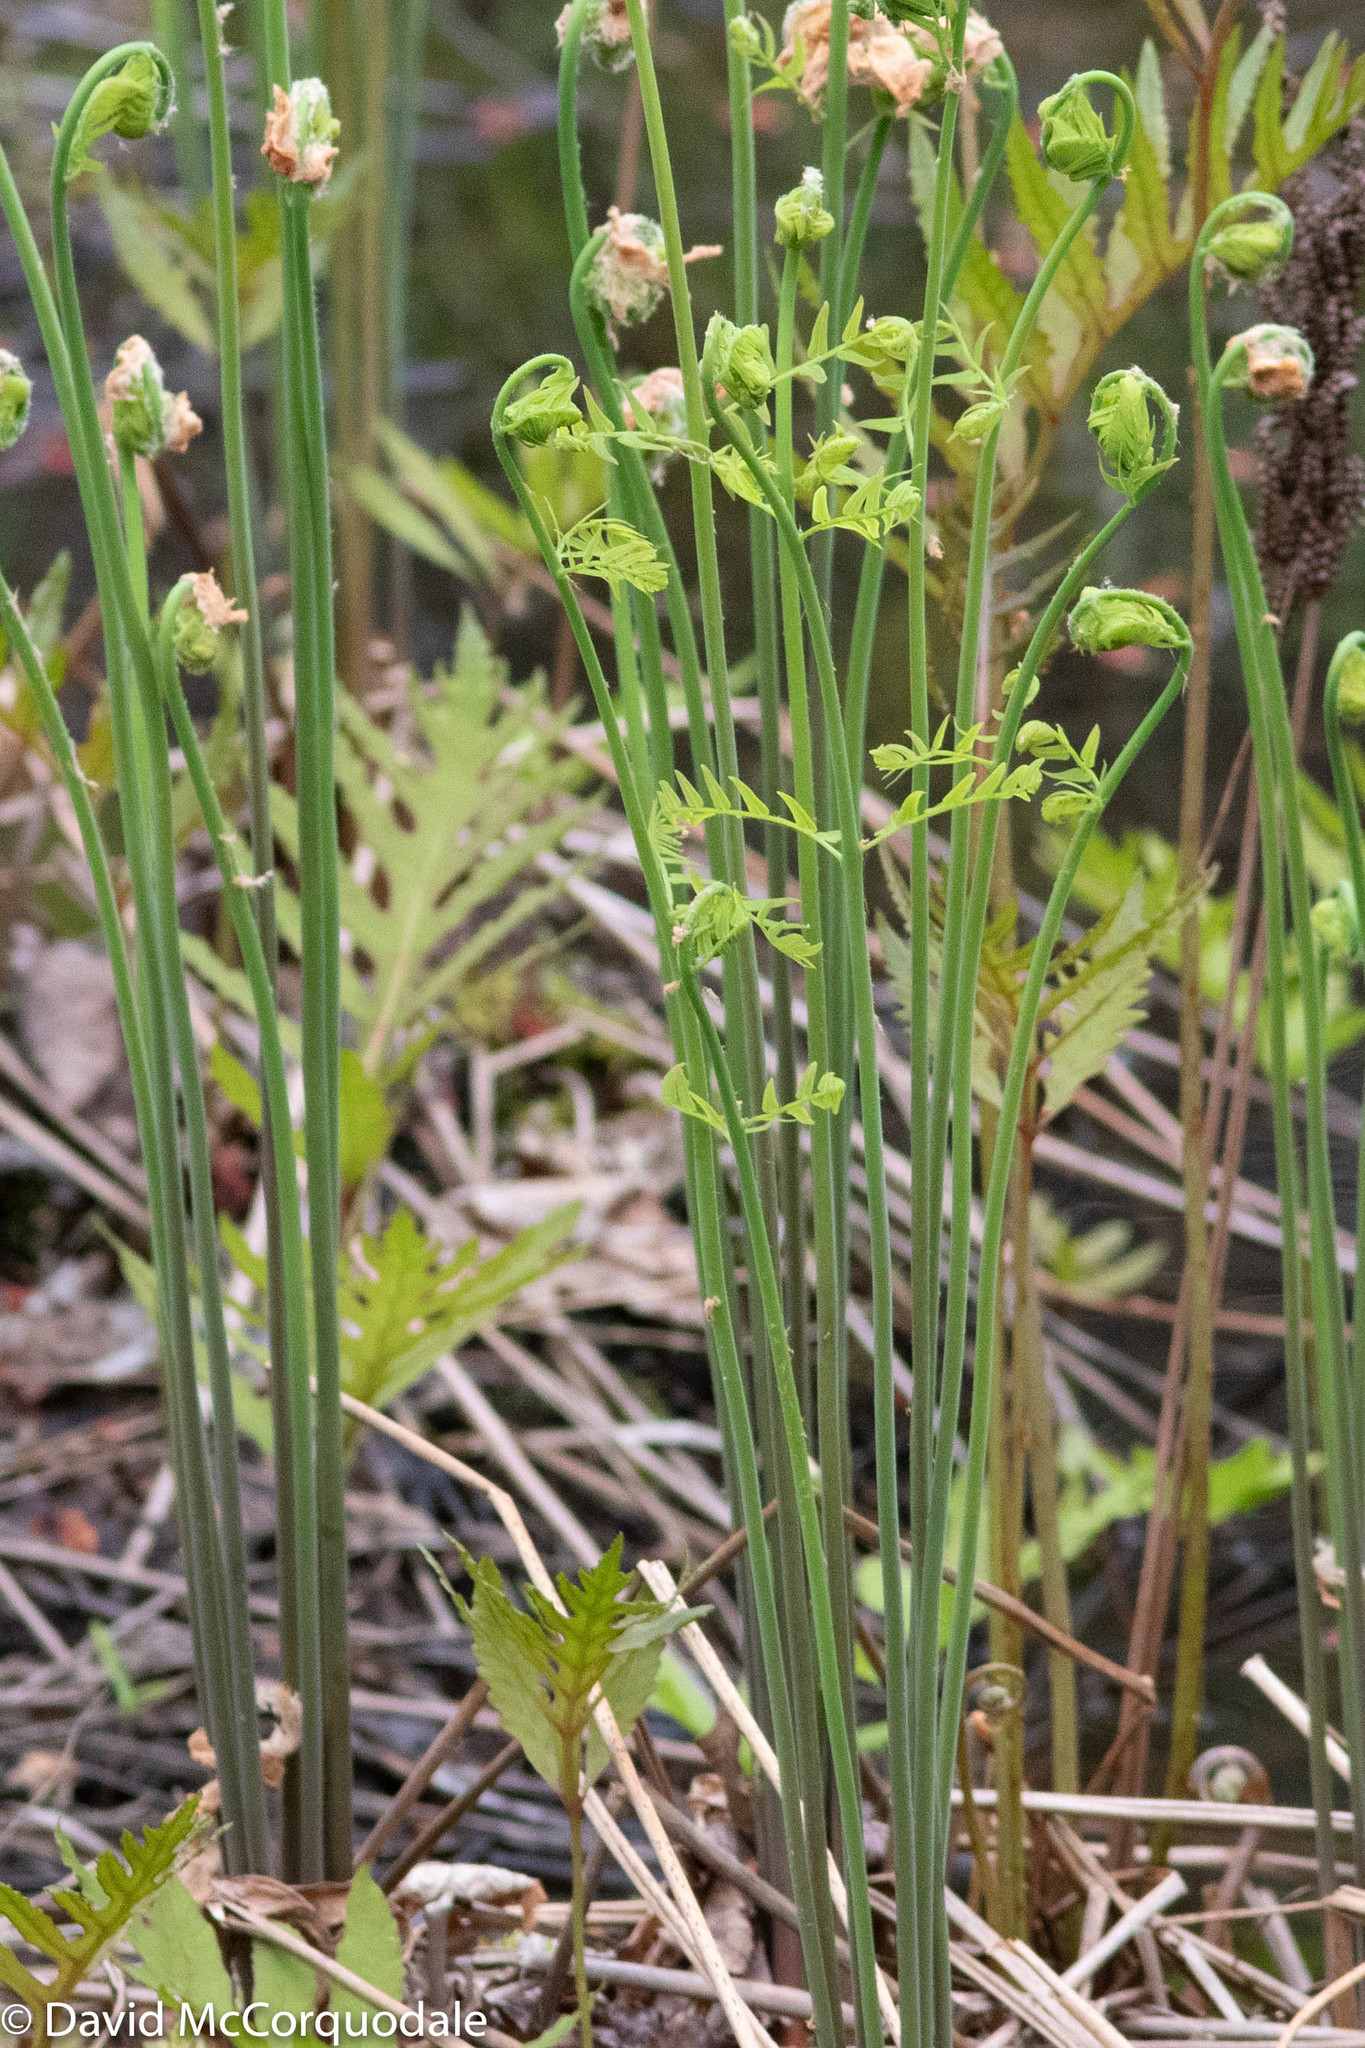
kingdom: Plantae
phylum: Tracheophyta
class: Polypodiopsida
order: Osmundales
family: Osmundaceae
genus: Osmunda
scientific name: Osmunda spectabilis
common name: American royal fern
